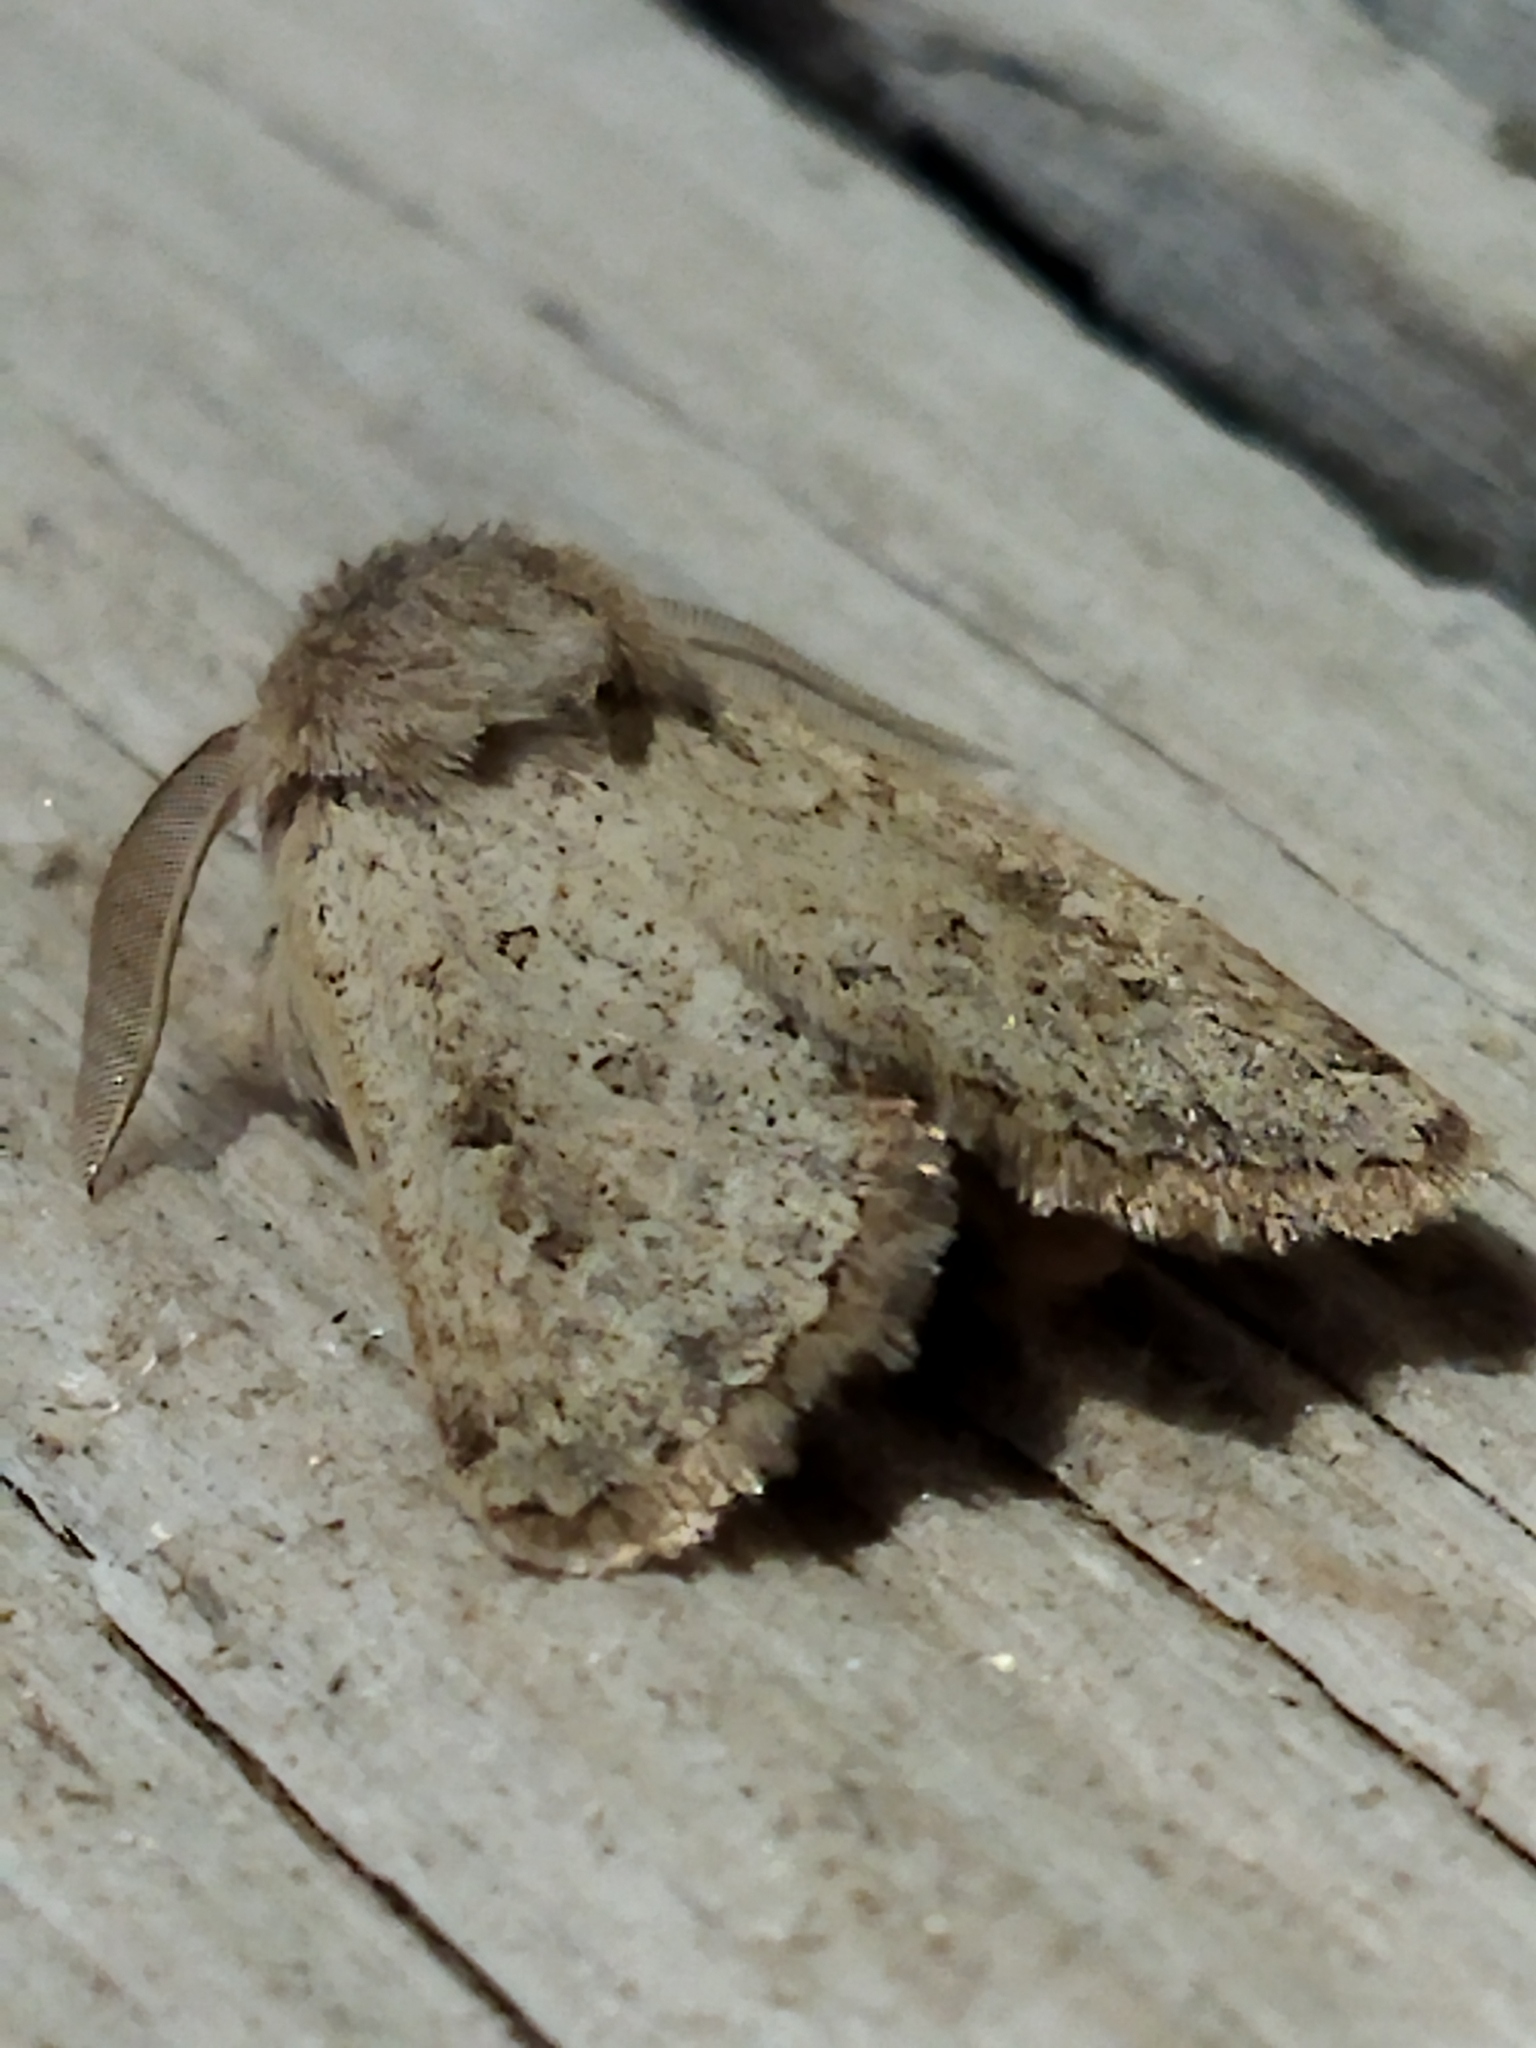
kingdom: Animalia
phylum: Arthropoda
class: Insecta
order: Lepidoptera
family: Noctuidae
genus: Episema
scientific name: Episema lederi
